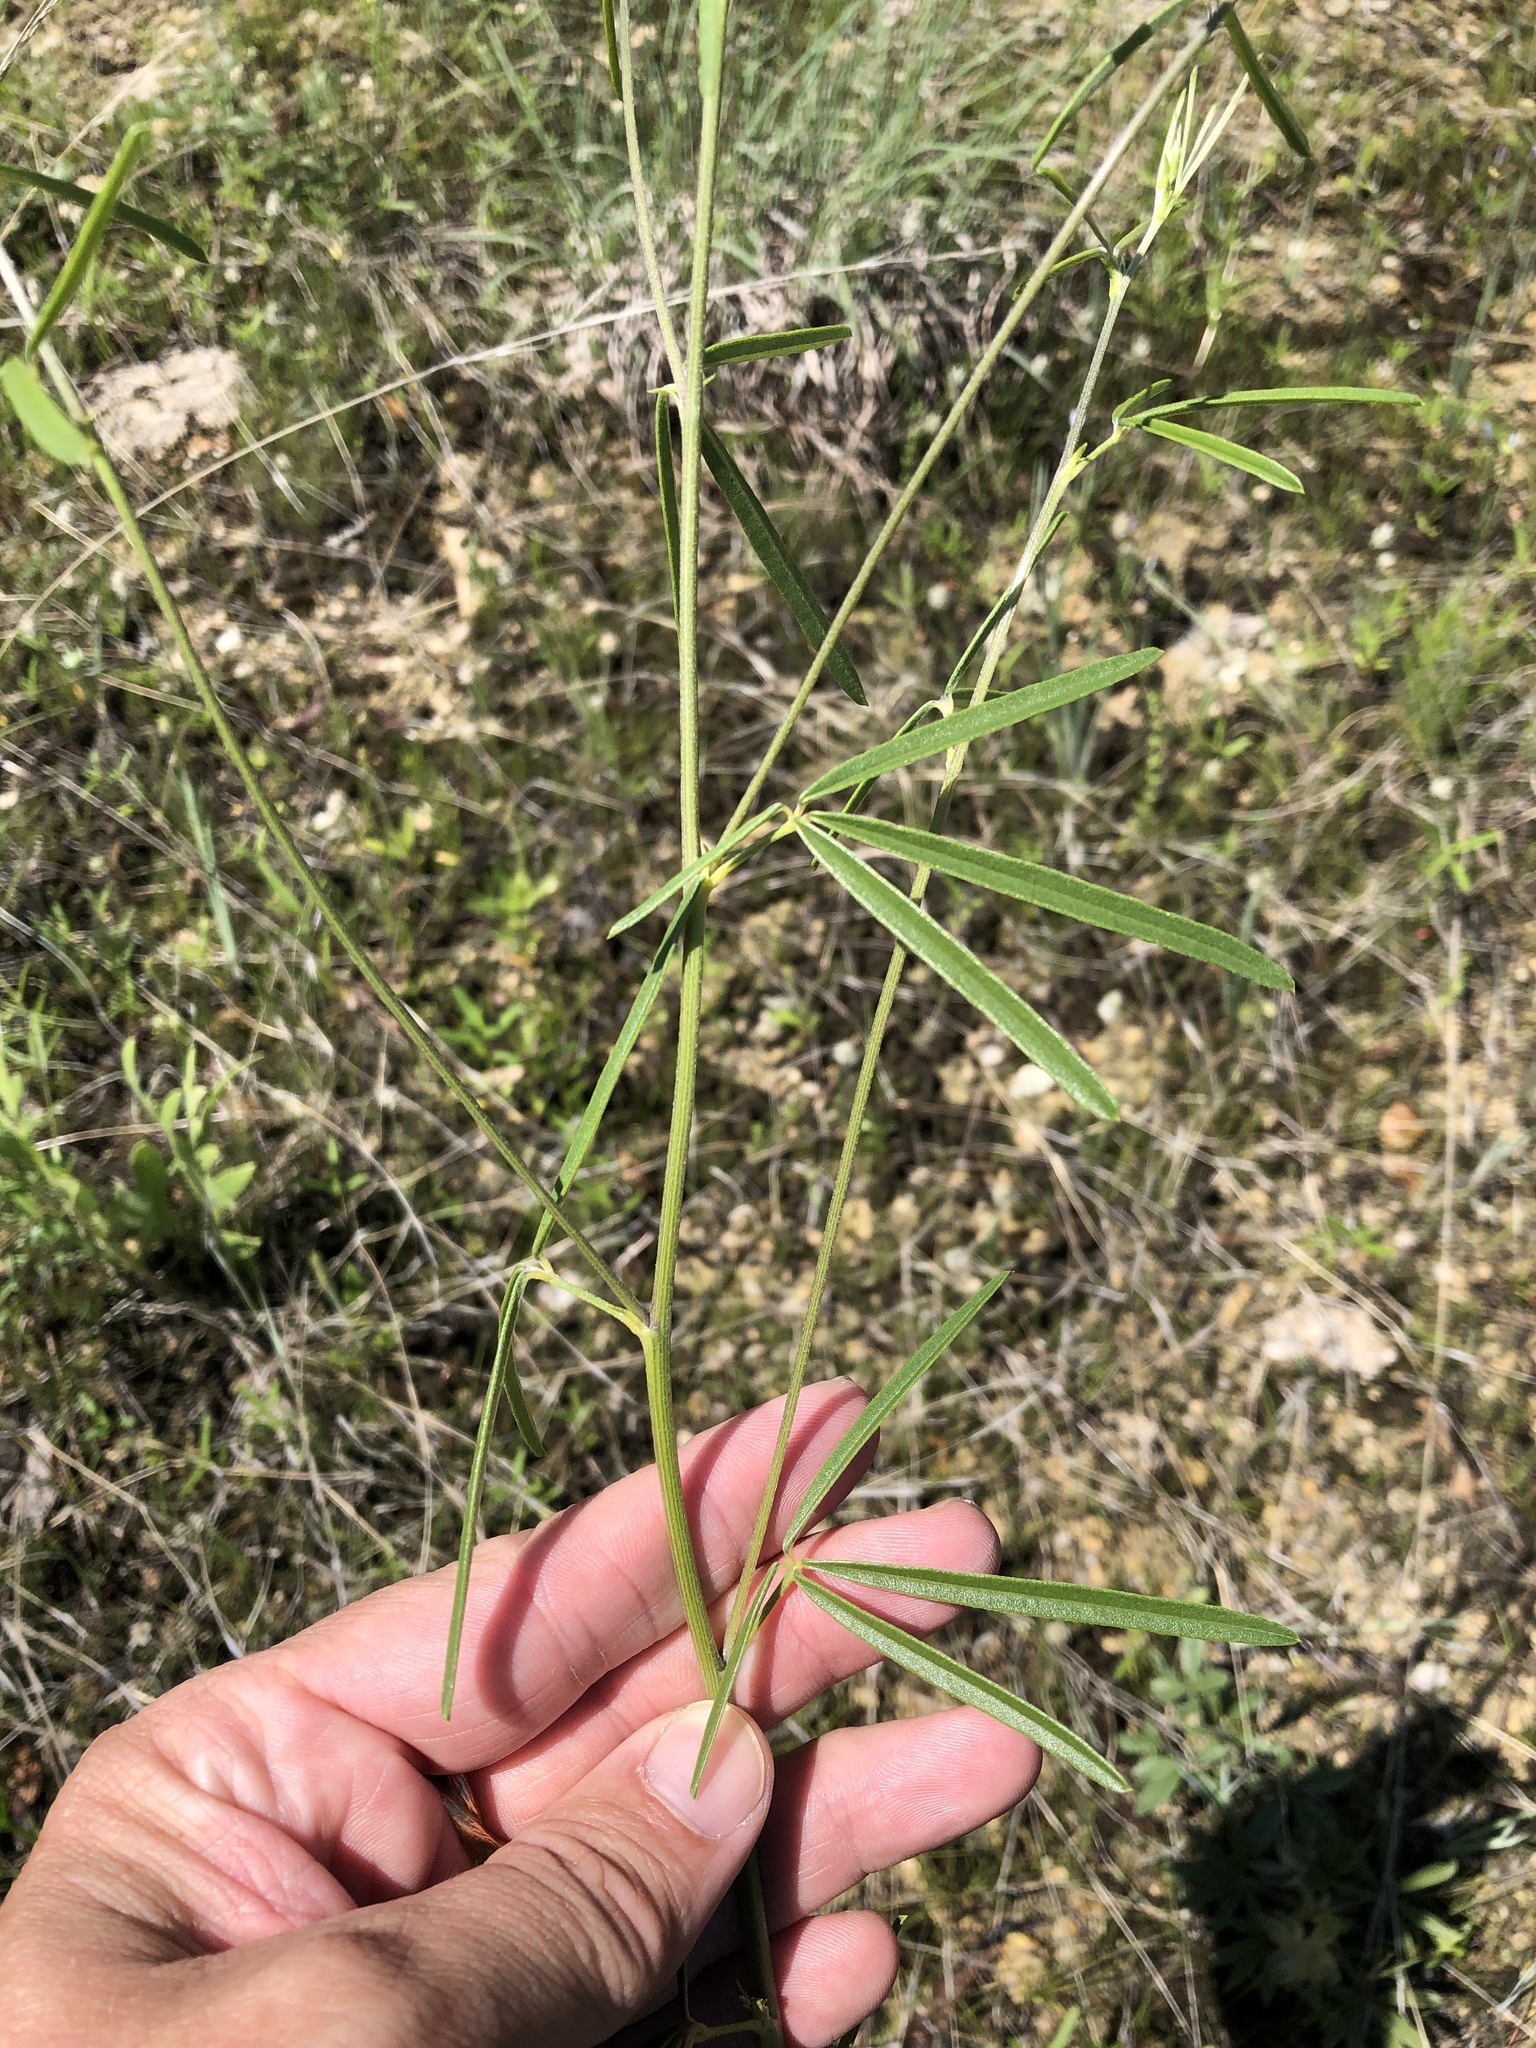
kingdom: Plantae
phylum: Tracheophyta
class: Magnoliopsida
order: Fabales
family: Fabaceae
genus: Pediomelum
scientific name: Pediomelum linearifolium
